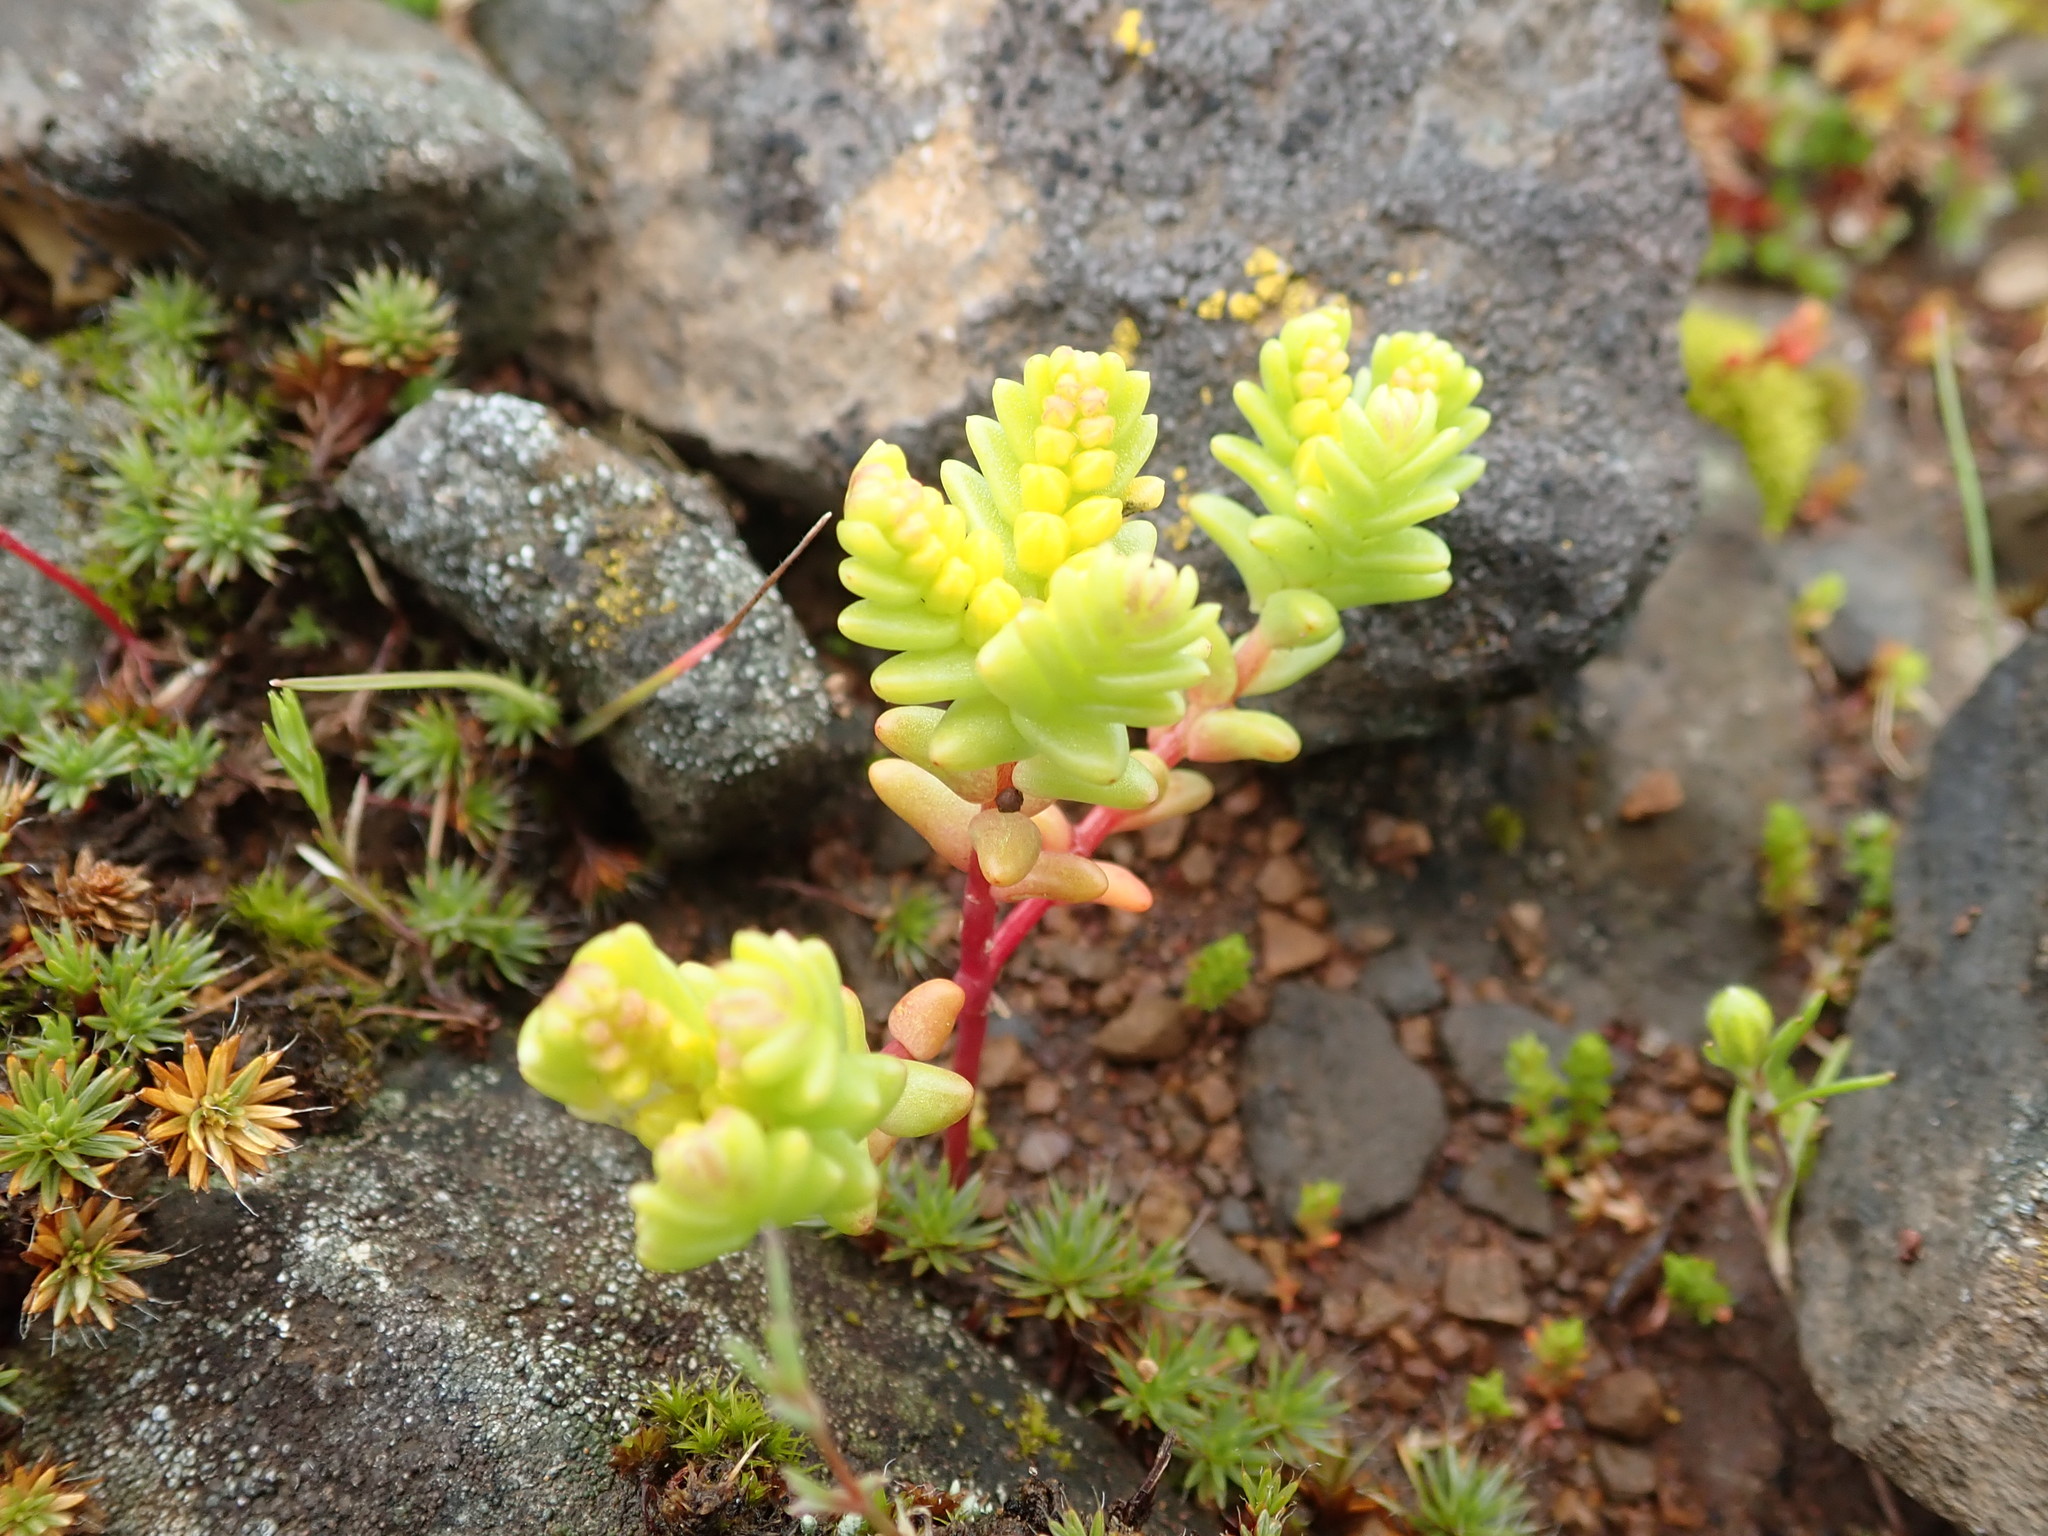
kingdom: Plantae
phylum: Tracheophyta
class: Magnoliopsida
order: Saxifragales
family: Crassulaceae
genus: Sedella
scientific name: Sedella pumila
